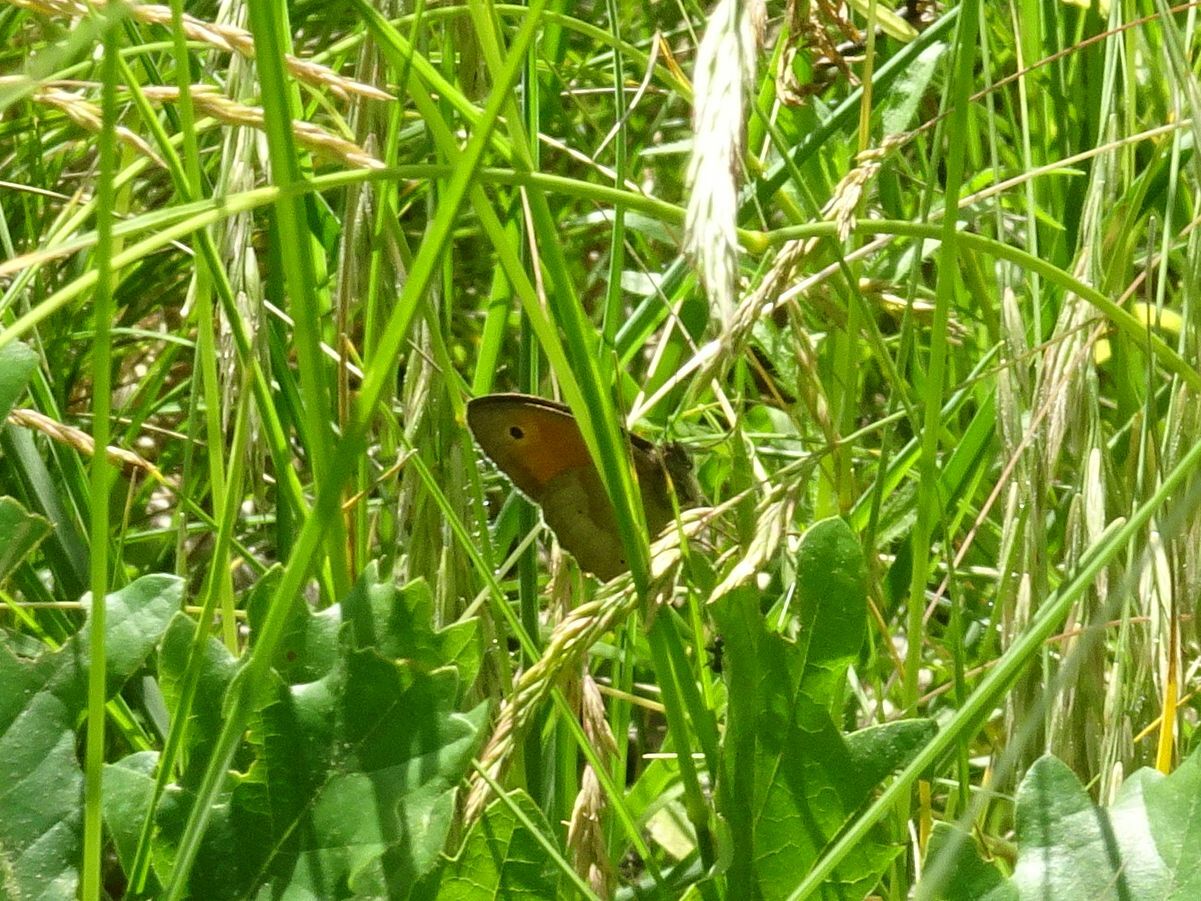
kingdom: Animalia
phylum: Arthropoda
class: Insecta
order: Lepidoptera
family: Nymphalidae
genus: Maniola
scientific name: Maniola jurtina
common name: Meadow brown
